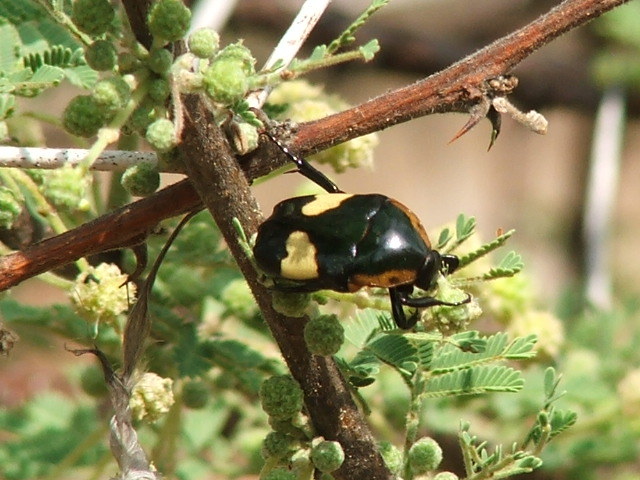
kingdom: Animalia
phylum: Arthropoda
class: Insecta
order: Coleoptera
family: Scarabaeidae
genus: Pedinorrhina
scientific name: Pedinorrhina
